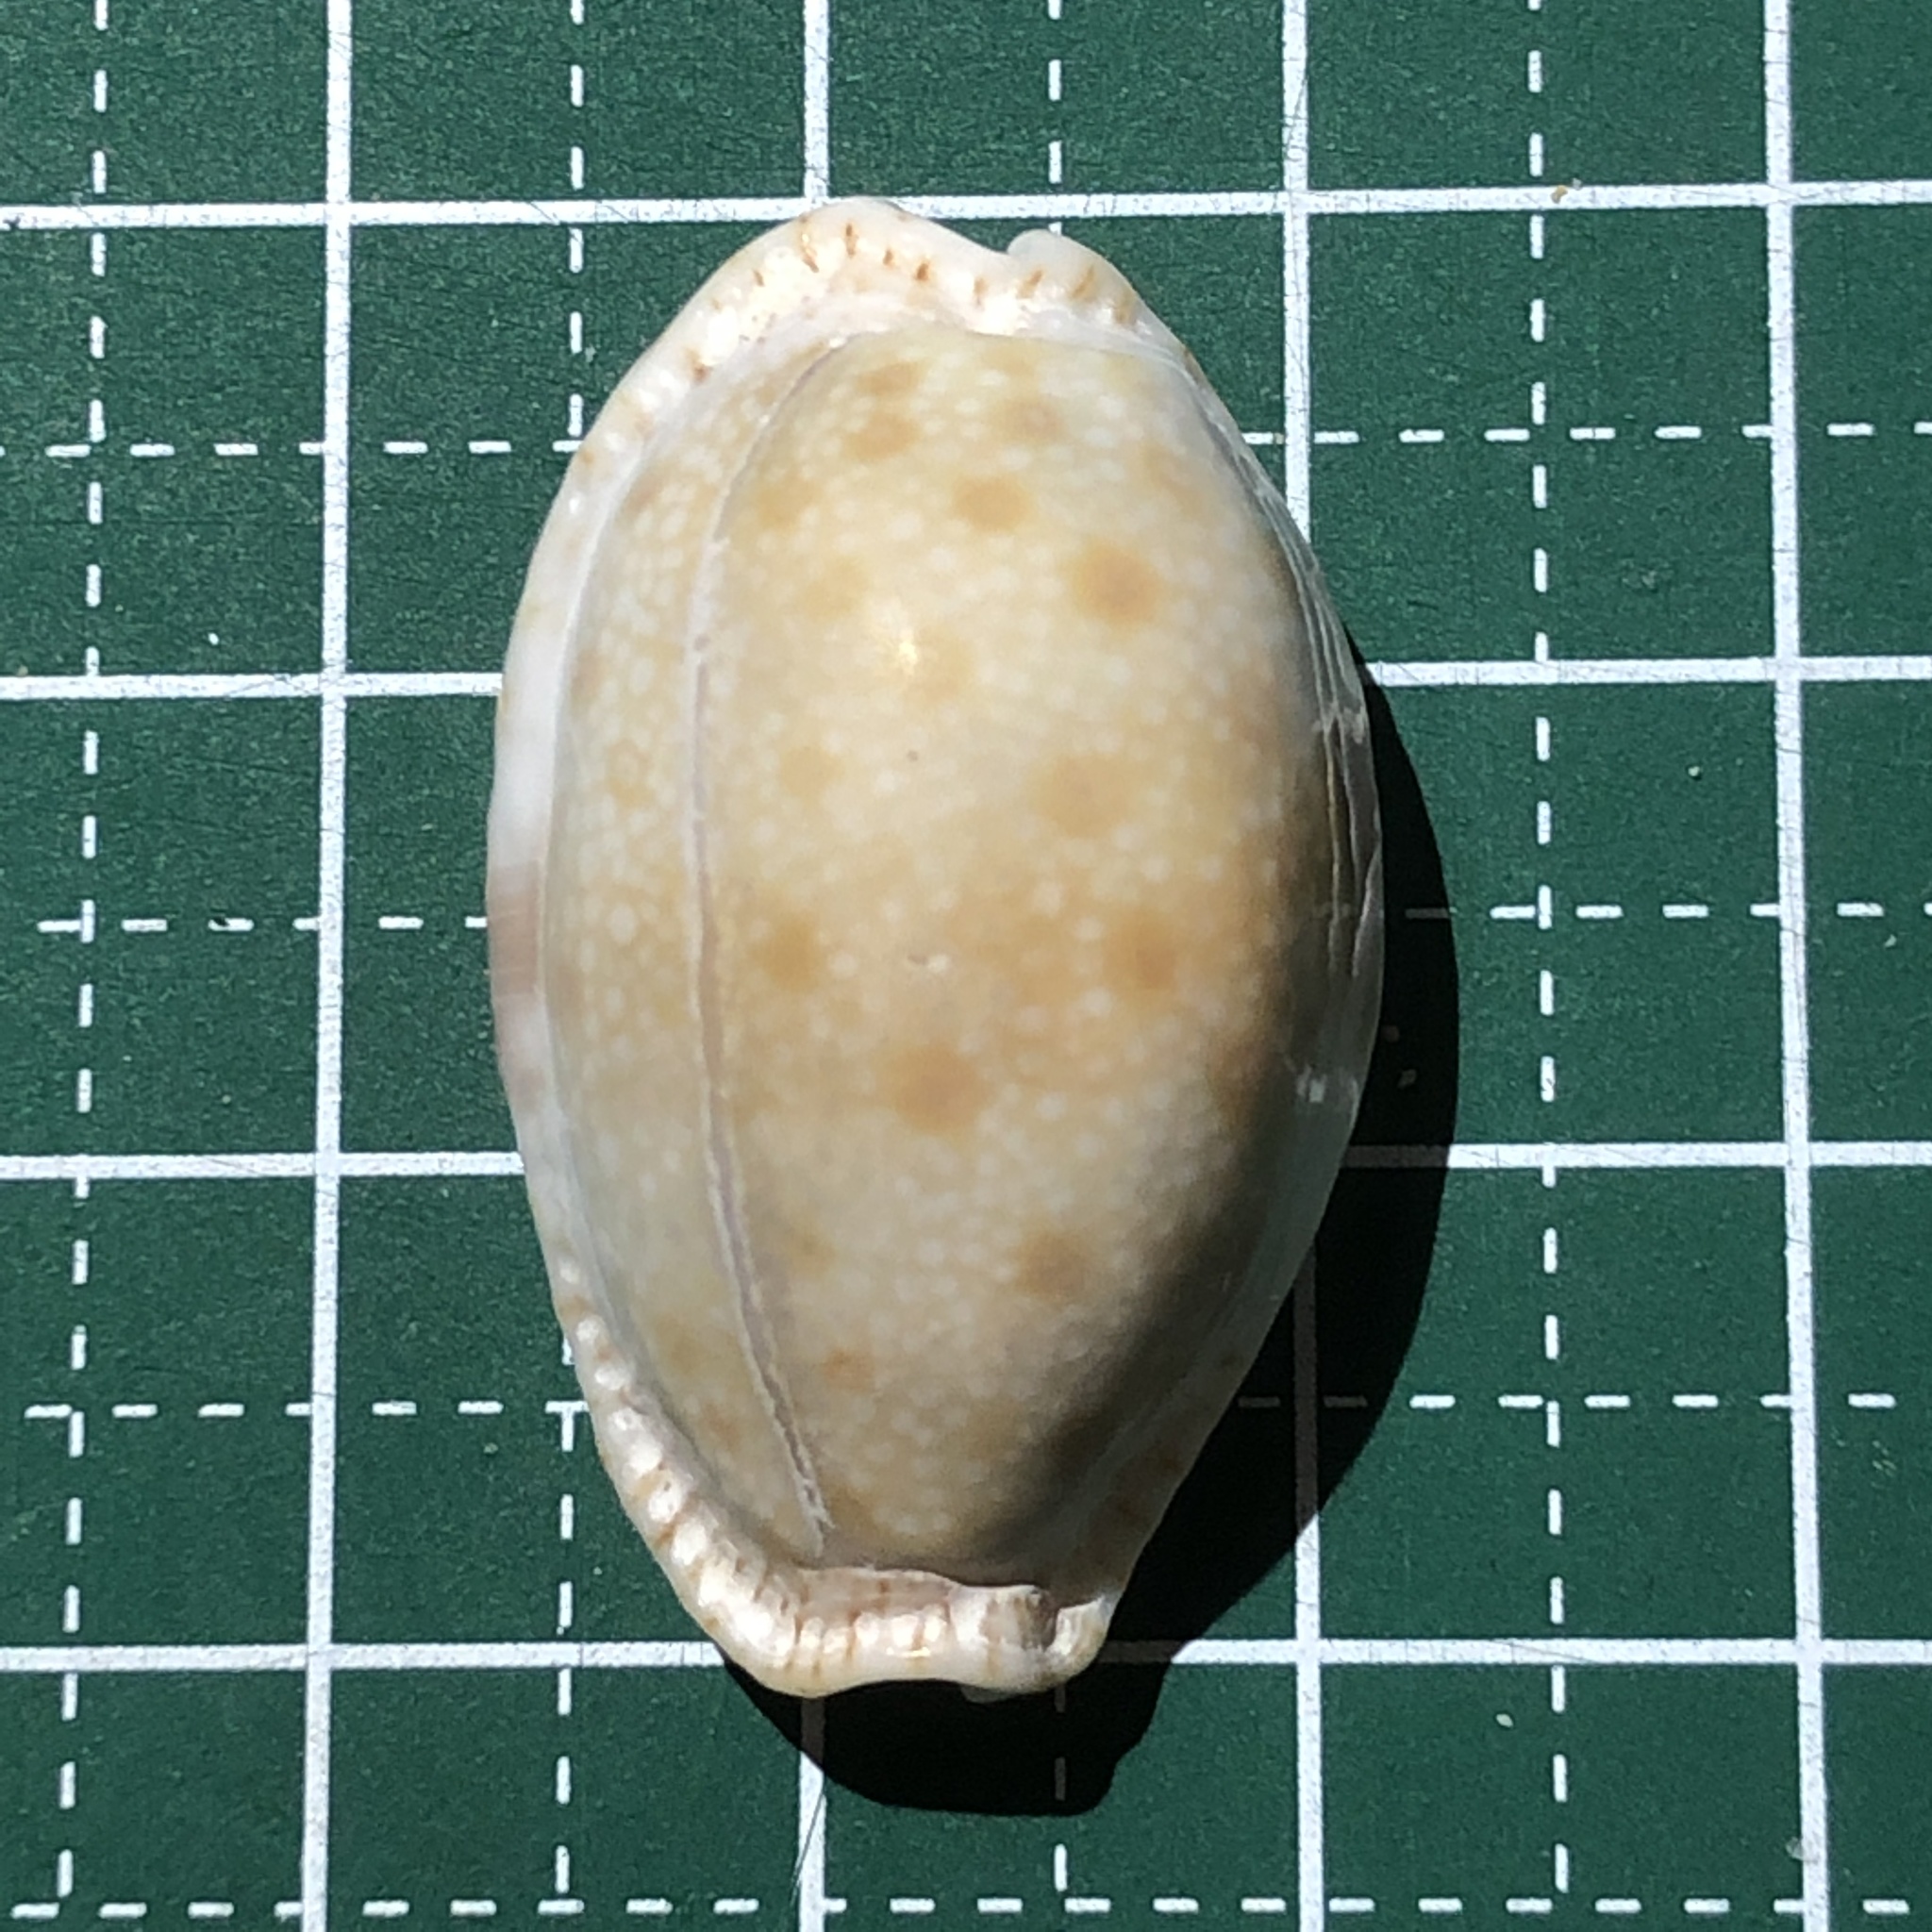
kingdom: Animalia
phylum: Mollusca
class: Gastropoda
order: Littorinimorpha
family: Cypraeidae
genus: Naria
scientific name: Naria erosa
